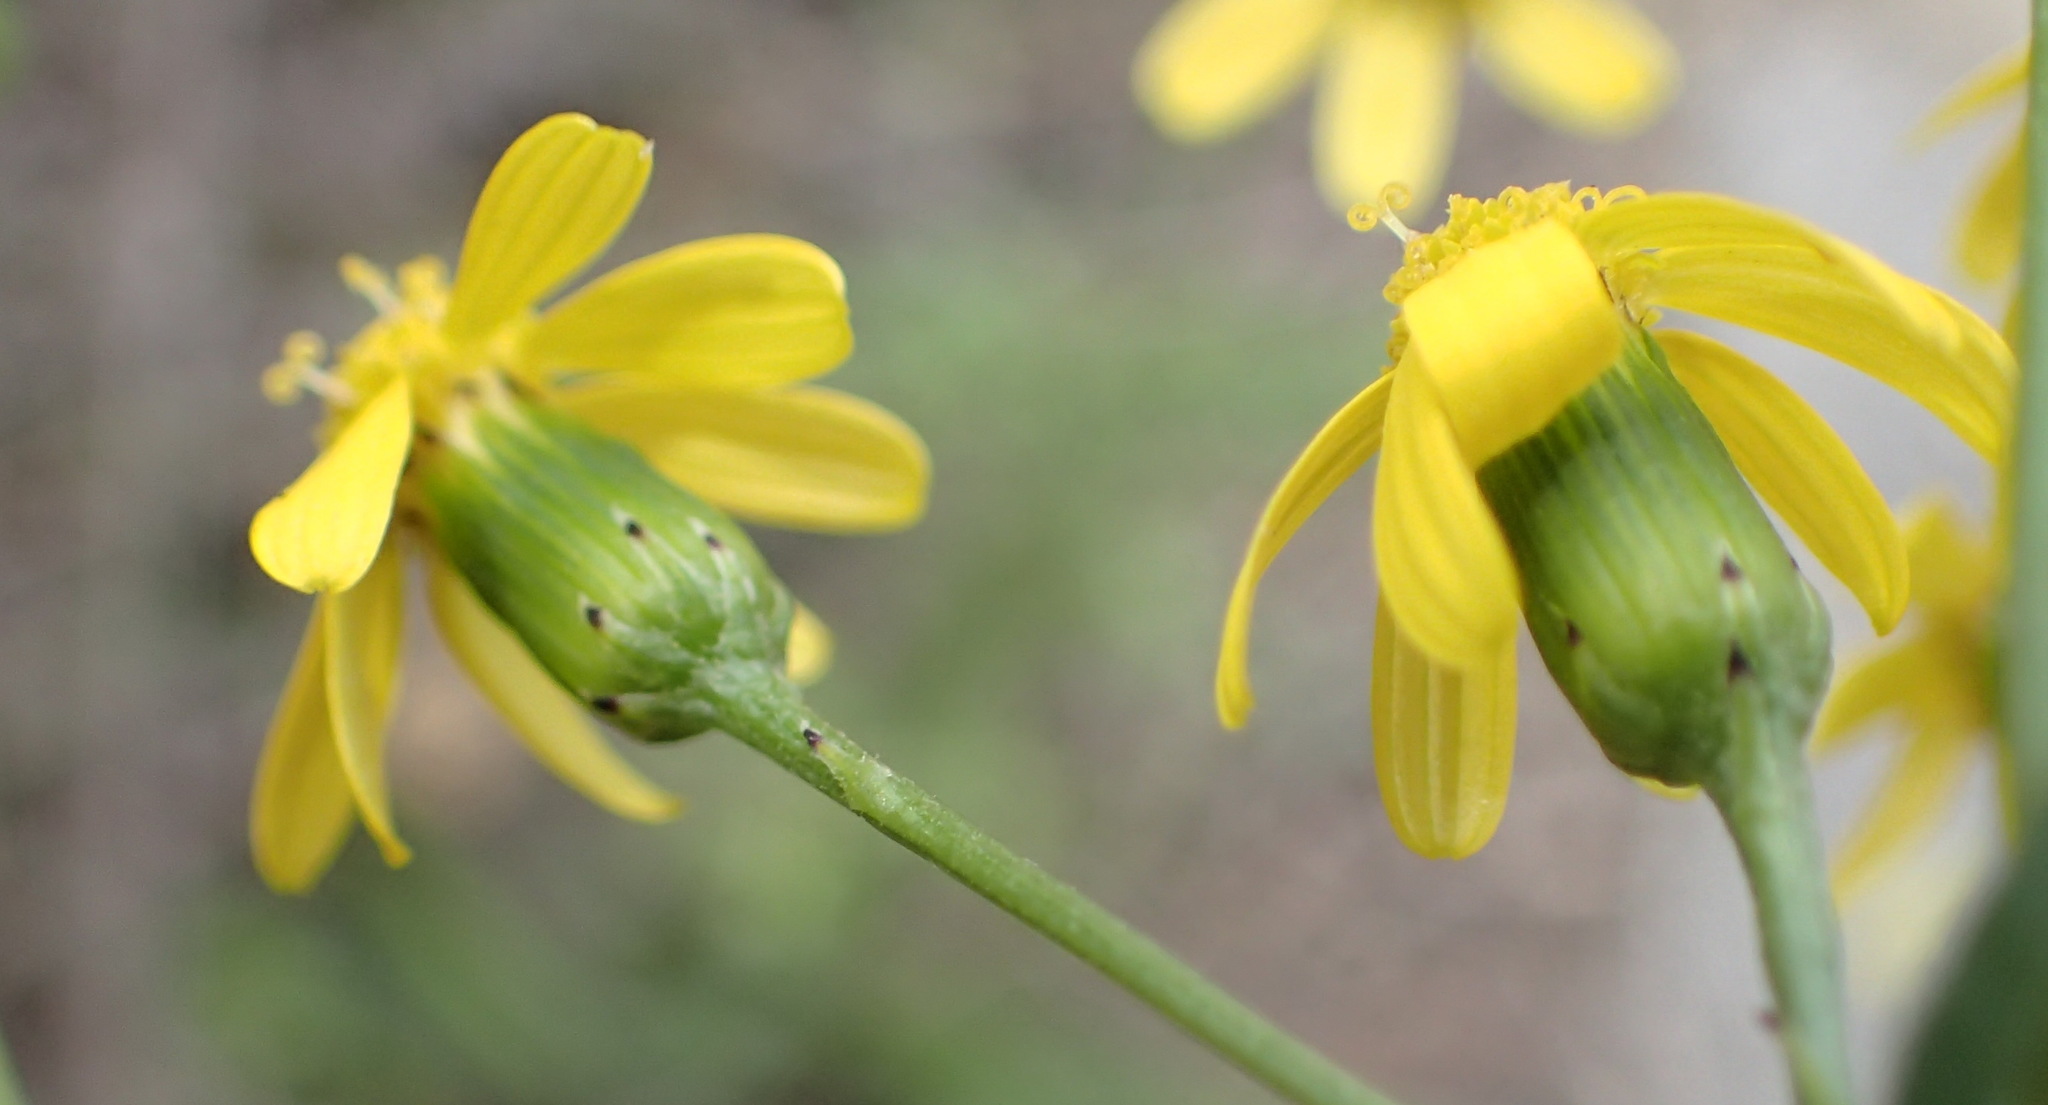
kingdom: Plantae
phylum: Tracheophyta
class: Magnoliopsida
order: Asterales
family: Asteraceae
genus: Senecio
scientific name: Senecio burchellii
